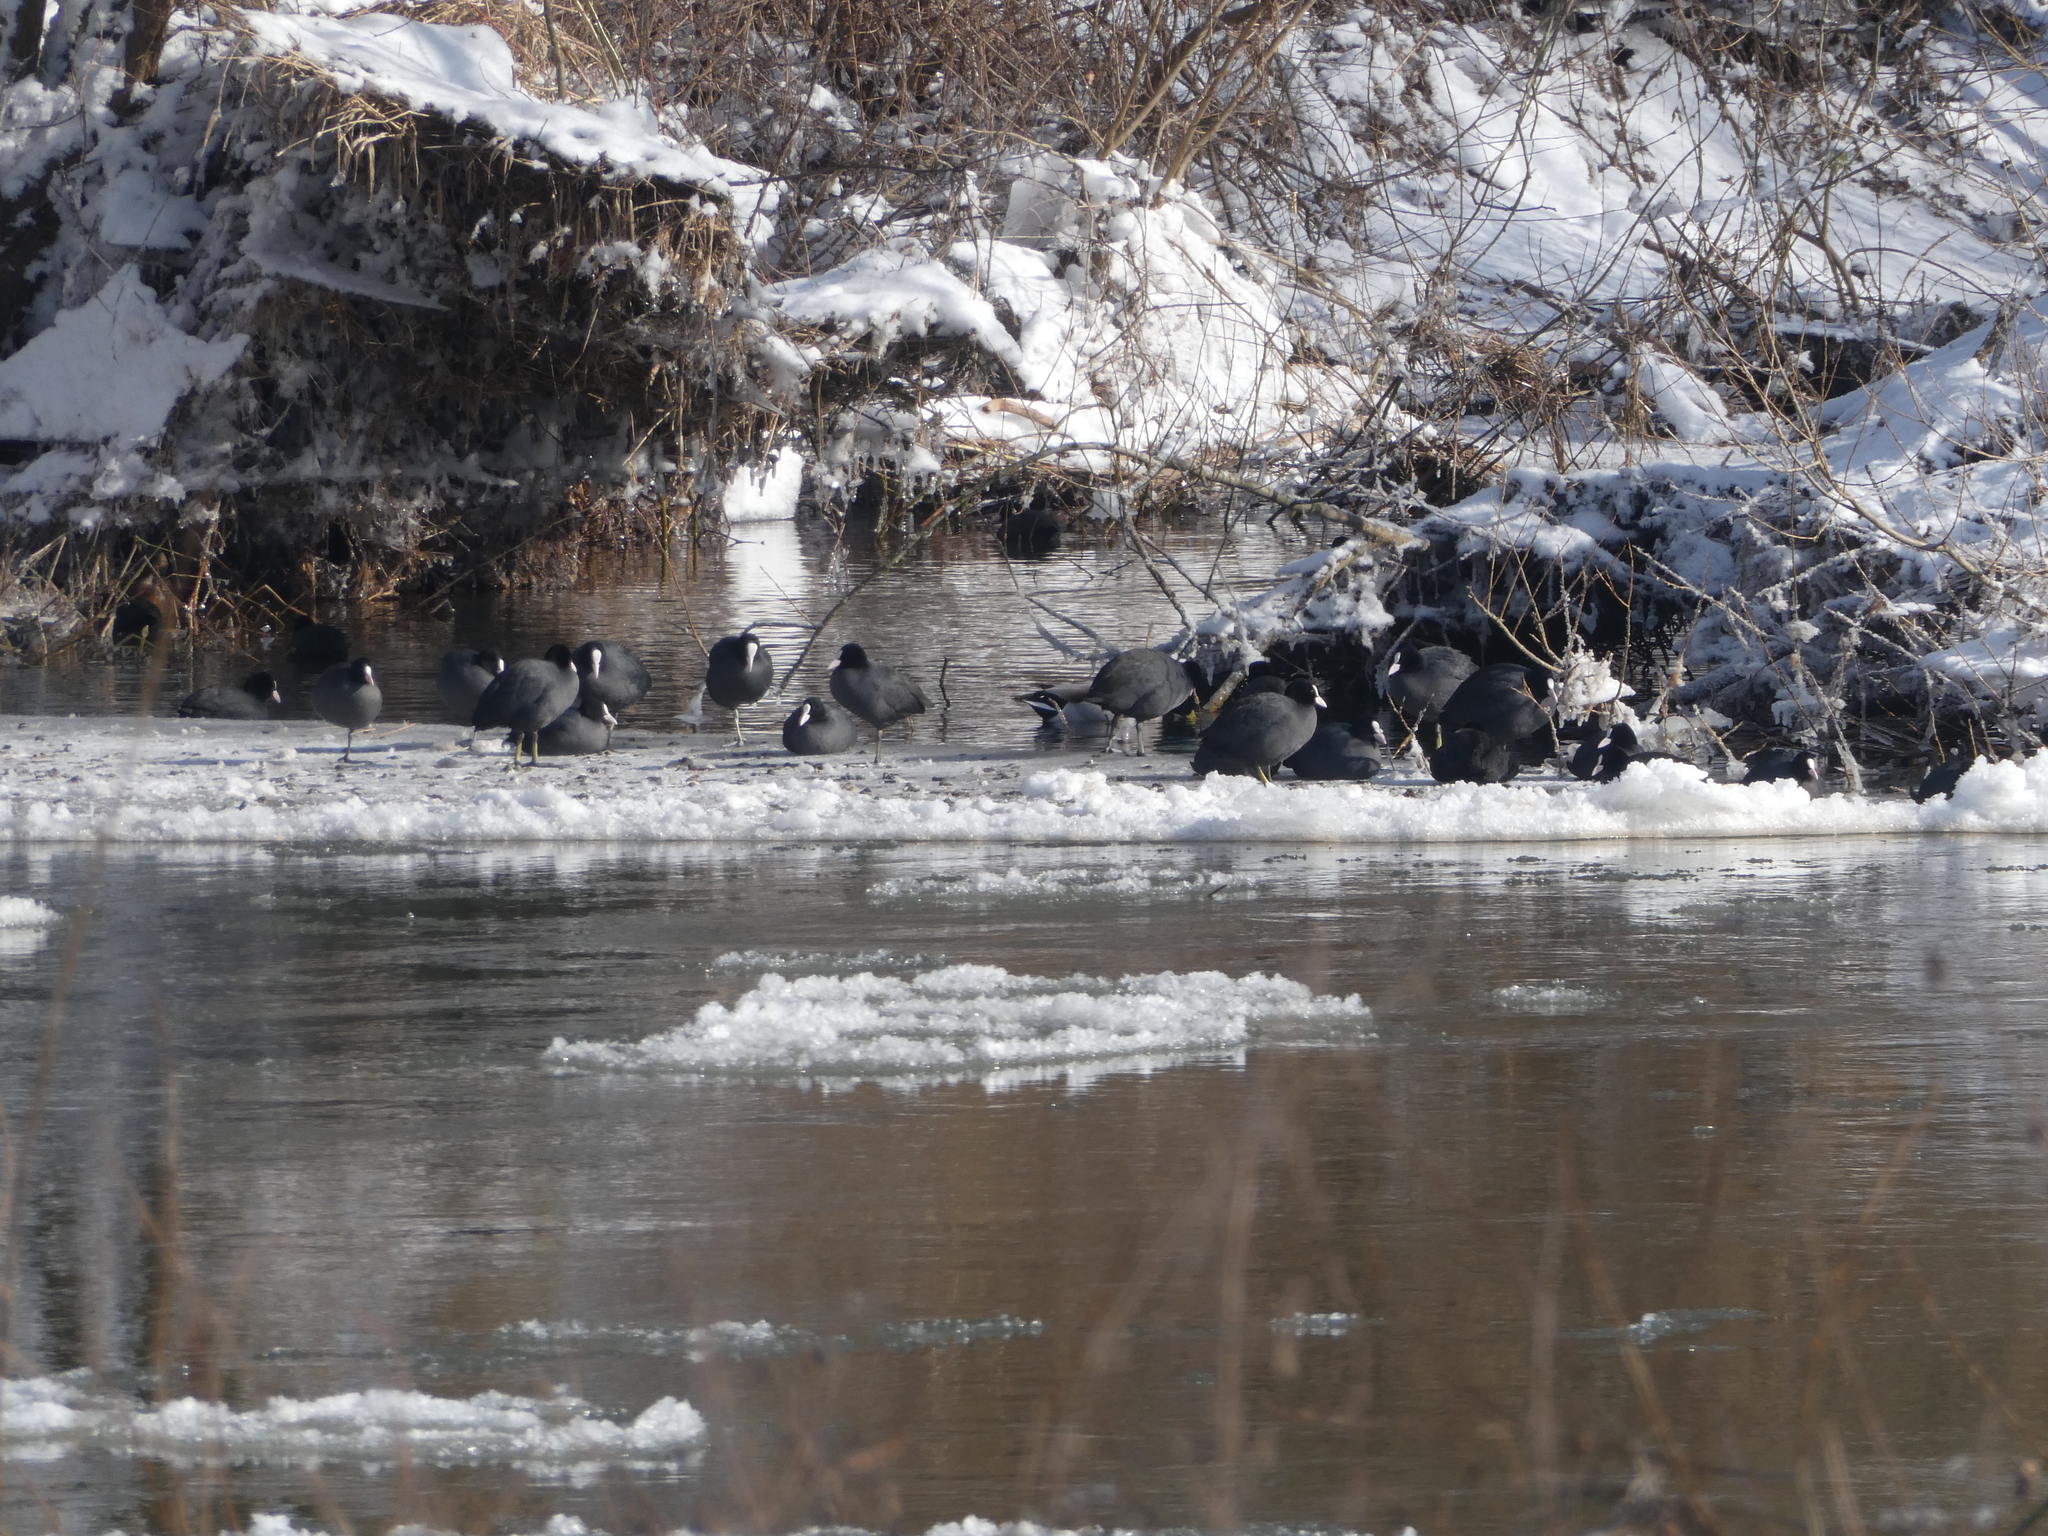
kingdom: Animalia
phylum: Chordata
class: Aves
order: Gruiformes
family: Rallidae
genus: Fulica
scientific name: Fulica atra
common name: Eurasian coot
